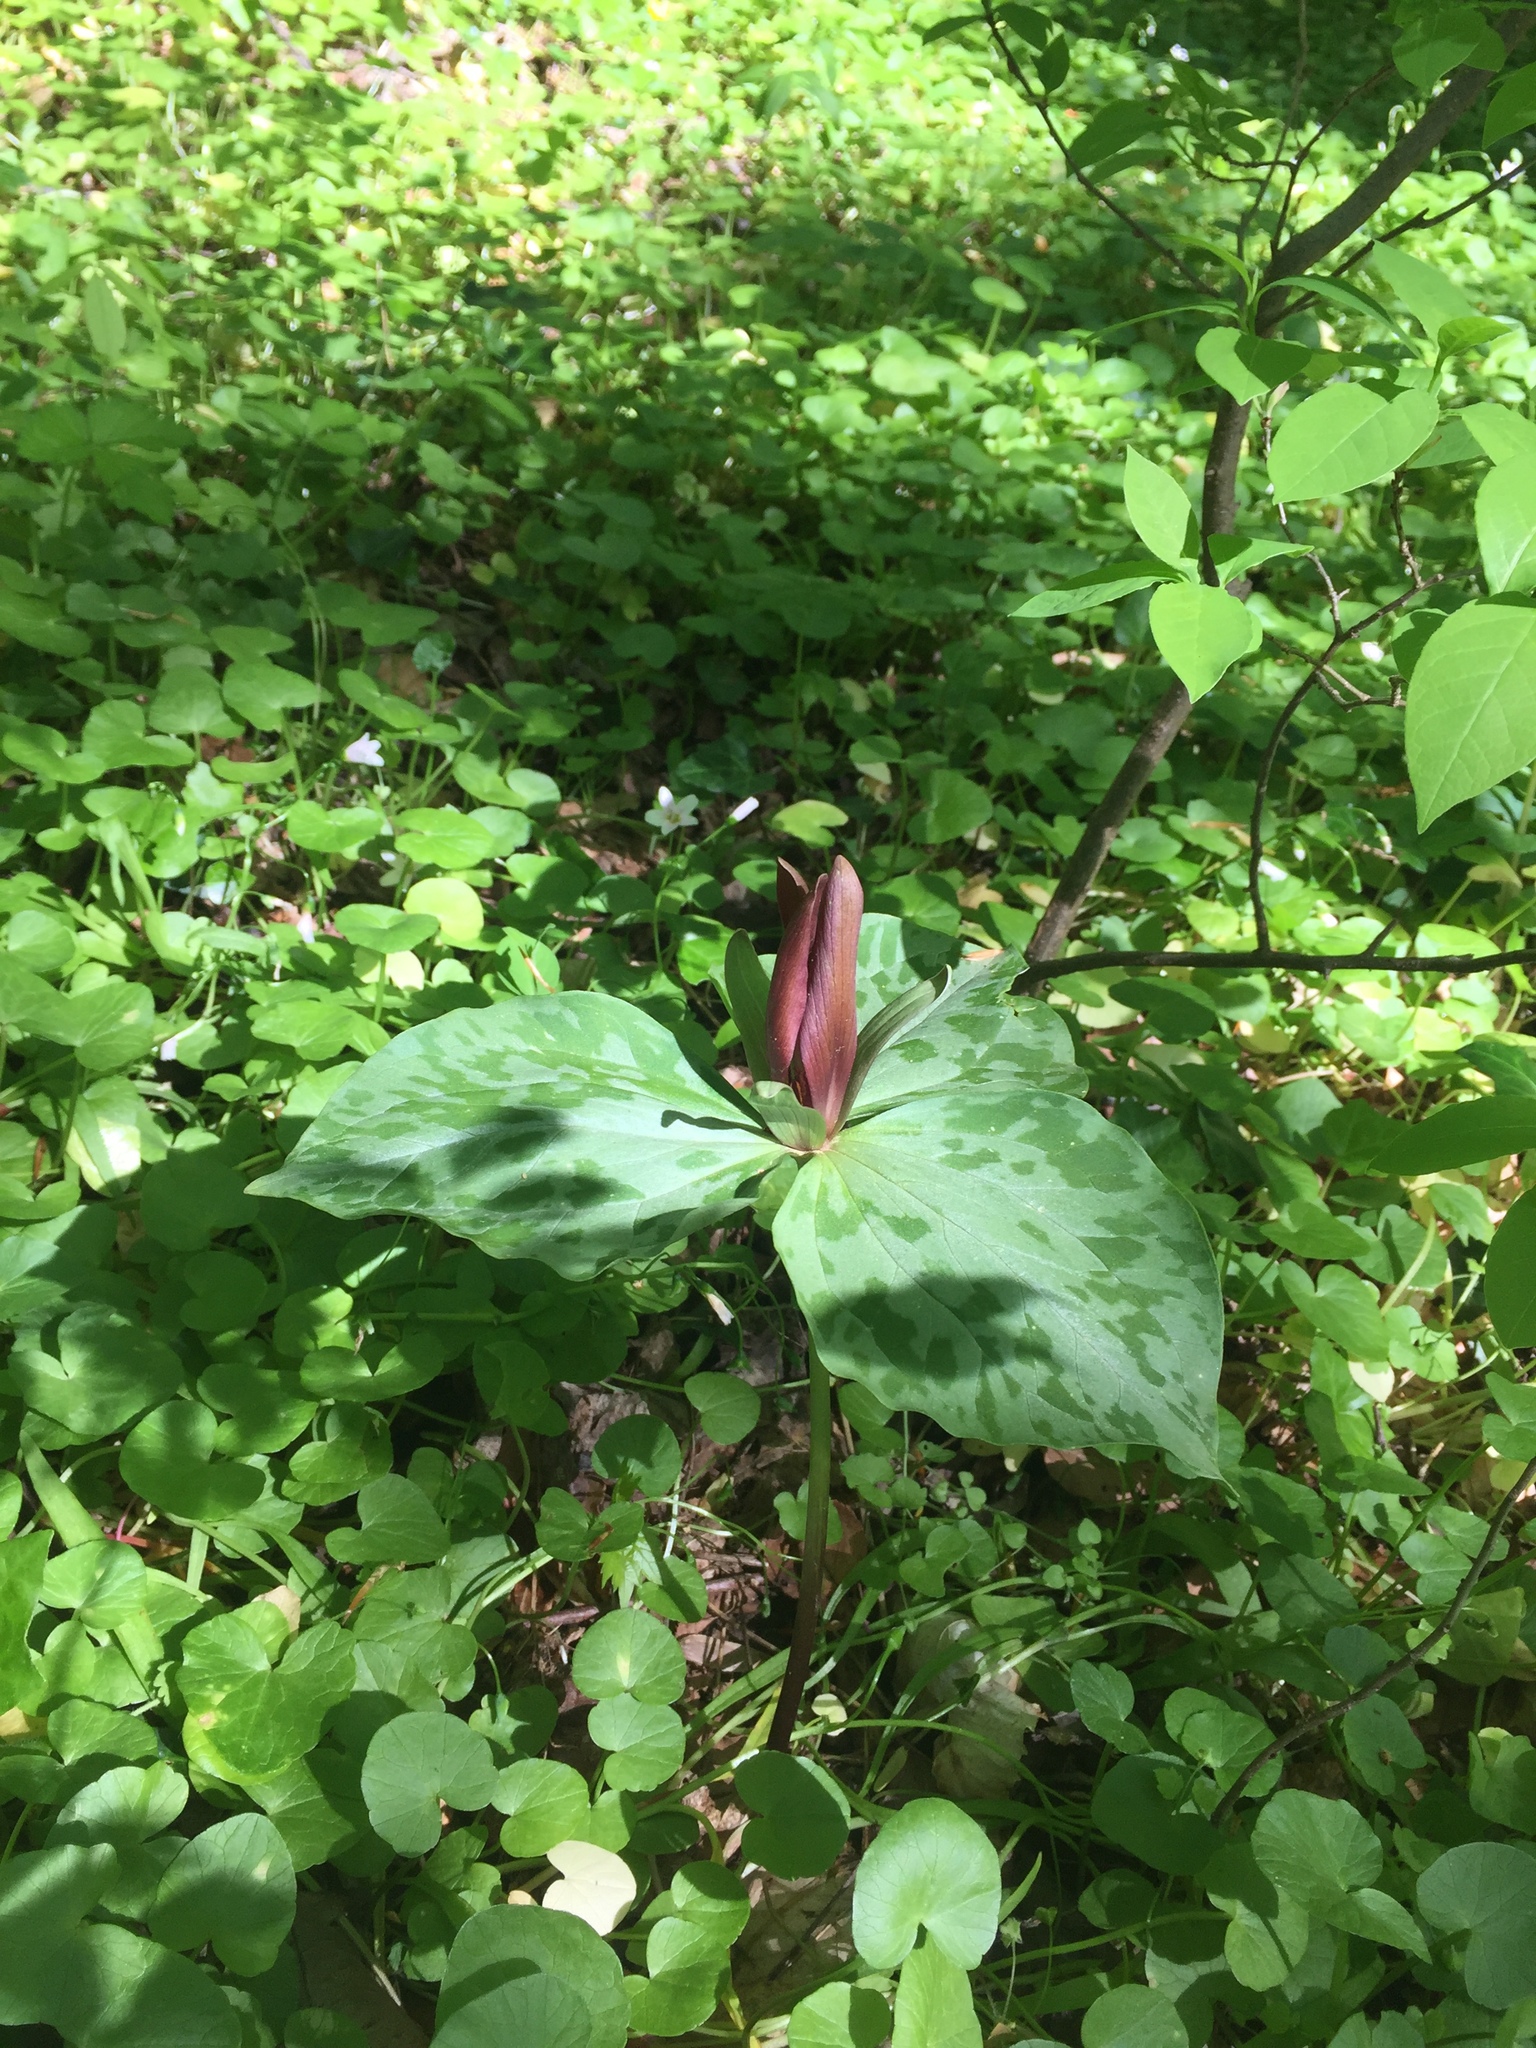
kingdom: Plantae
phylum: Tracheophyta
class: Liliopsida
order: Liliales
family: Melanthiaceae
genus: Trillium
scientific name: Trillium cuneatum
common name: Cuneate trillium
